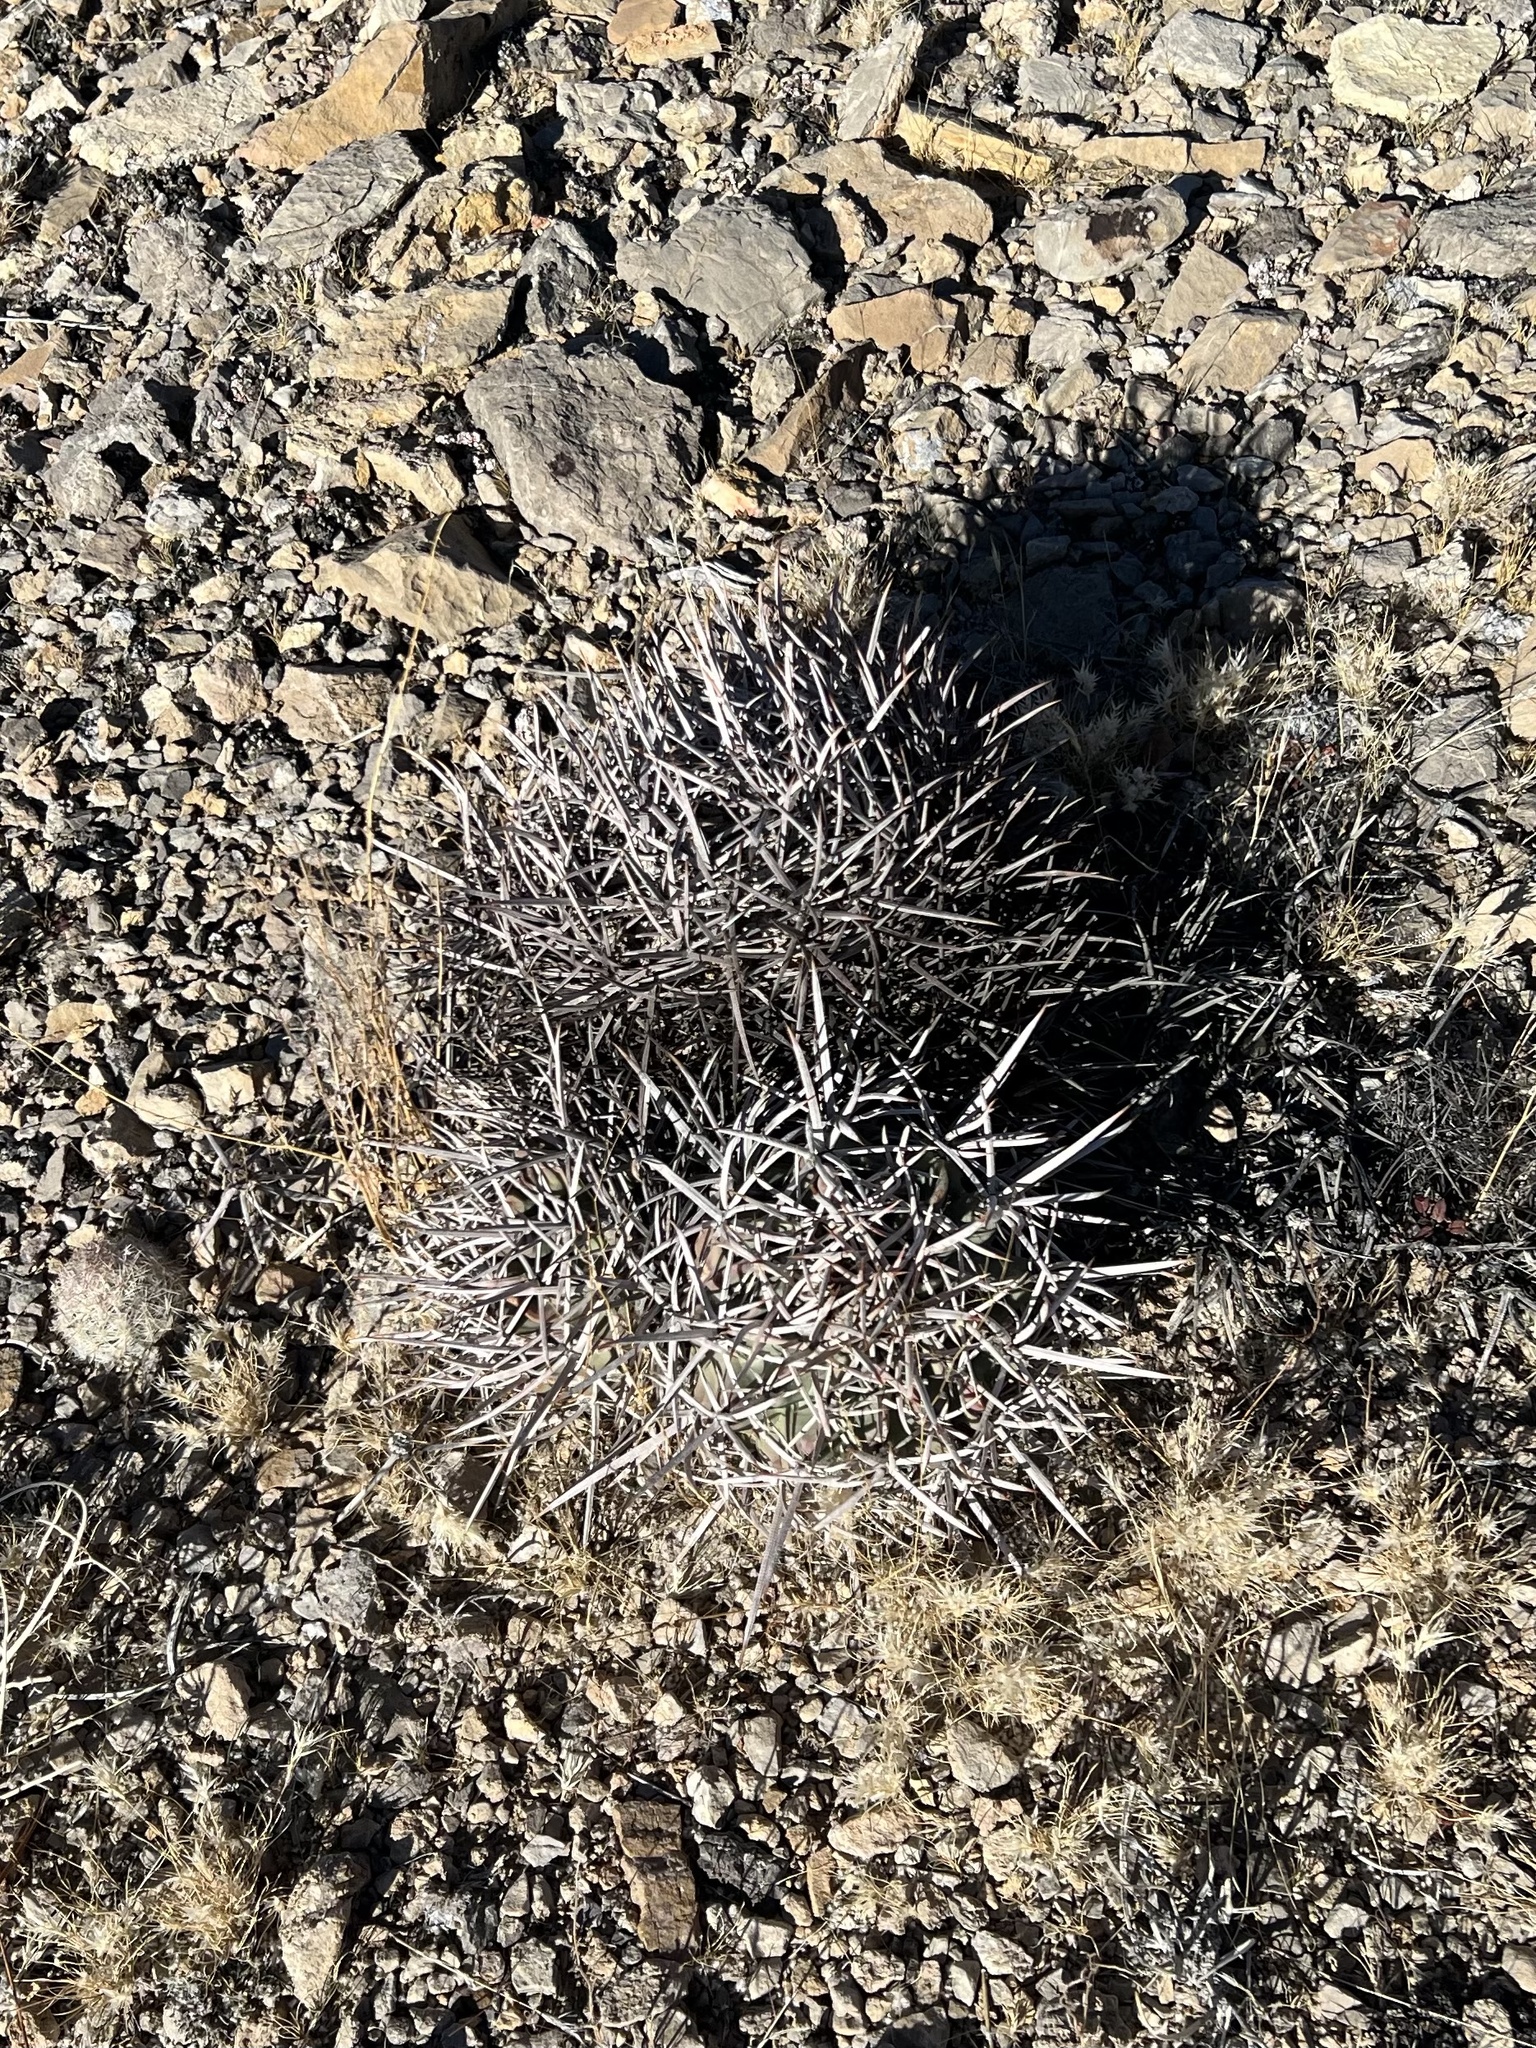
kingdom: Plantae
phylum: Tracheophyta
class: Magnoliopsida
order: Caryophyllales
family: Cactaceae
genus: Echinocactus
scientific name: Echinocactus polycephalus
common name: Cottontop cactus
